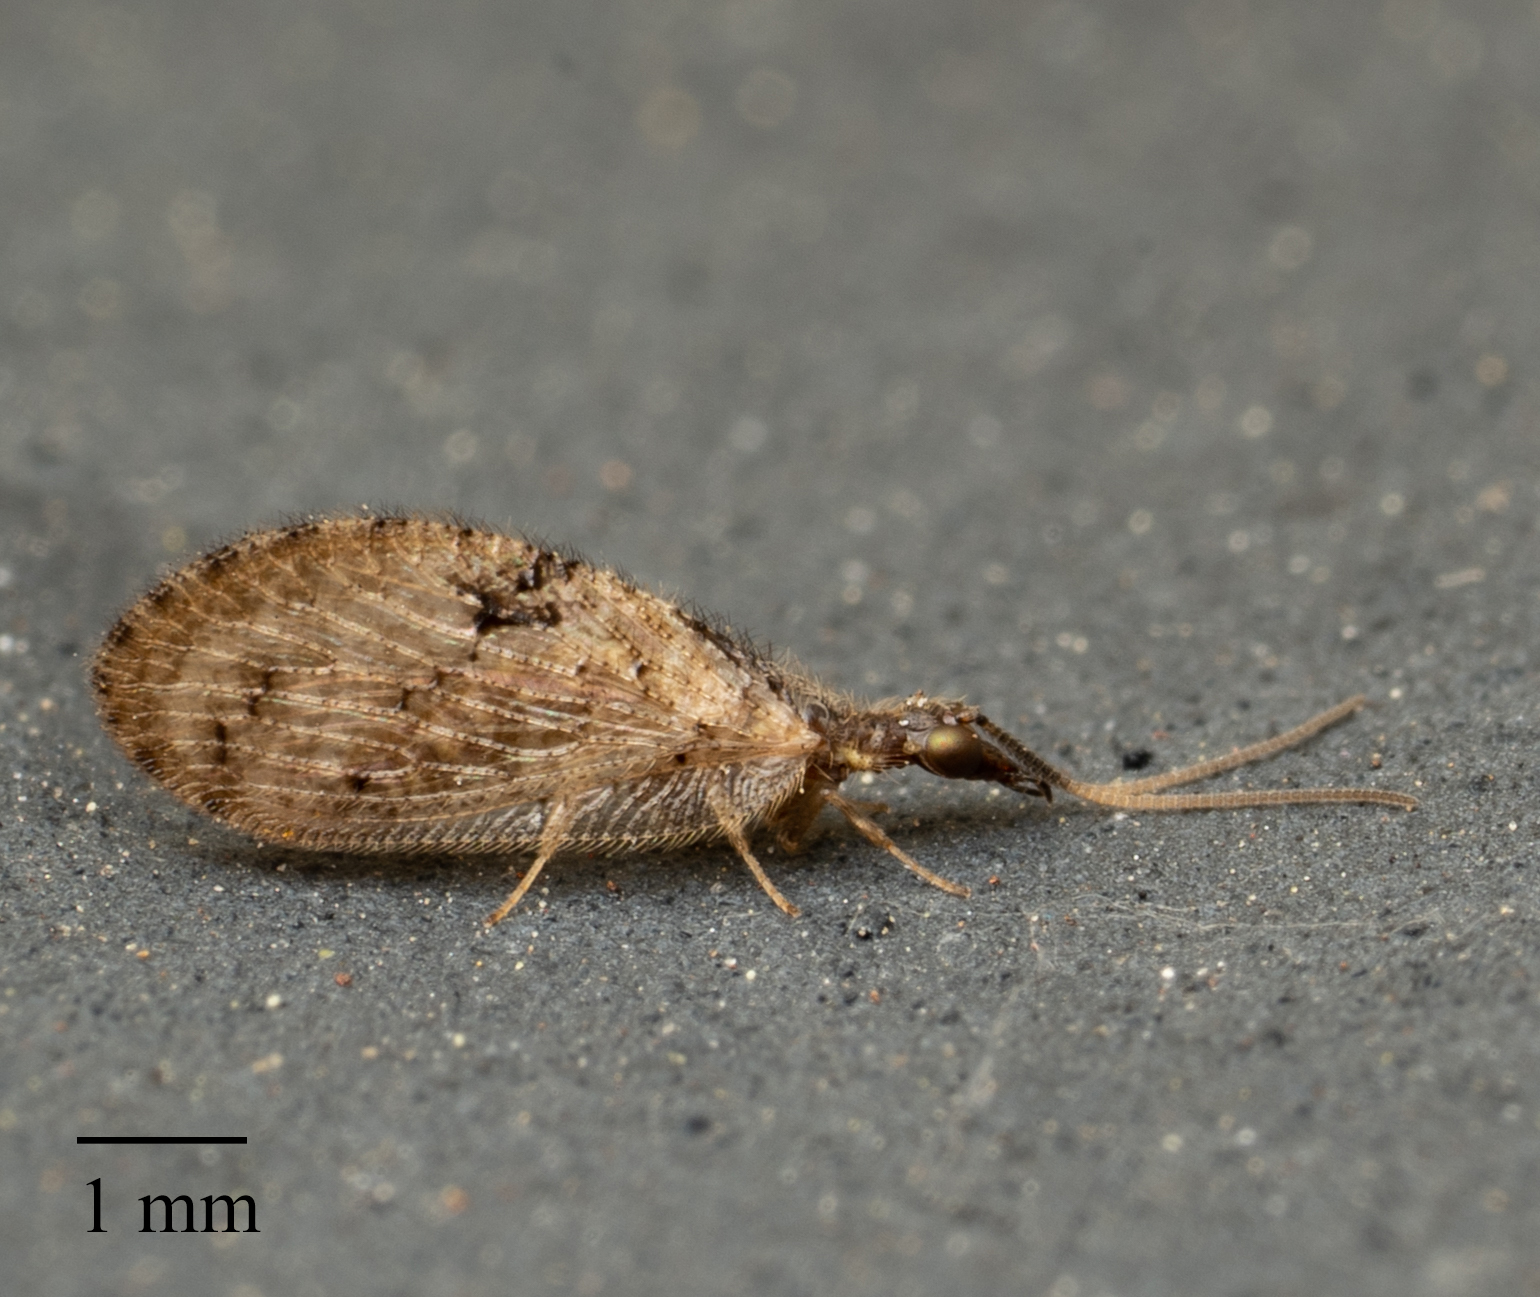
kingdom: Animalia
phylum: Arthropoda
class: Insecta
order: Neuroptera
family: Hemerobiidae
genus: Sympherobius
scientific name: Sympherobius barberi
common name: Brown lacewing
